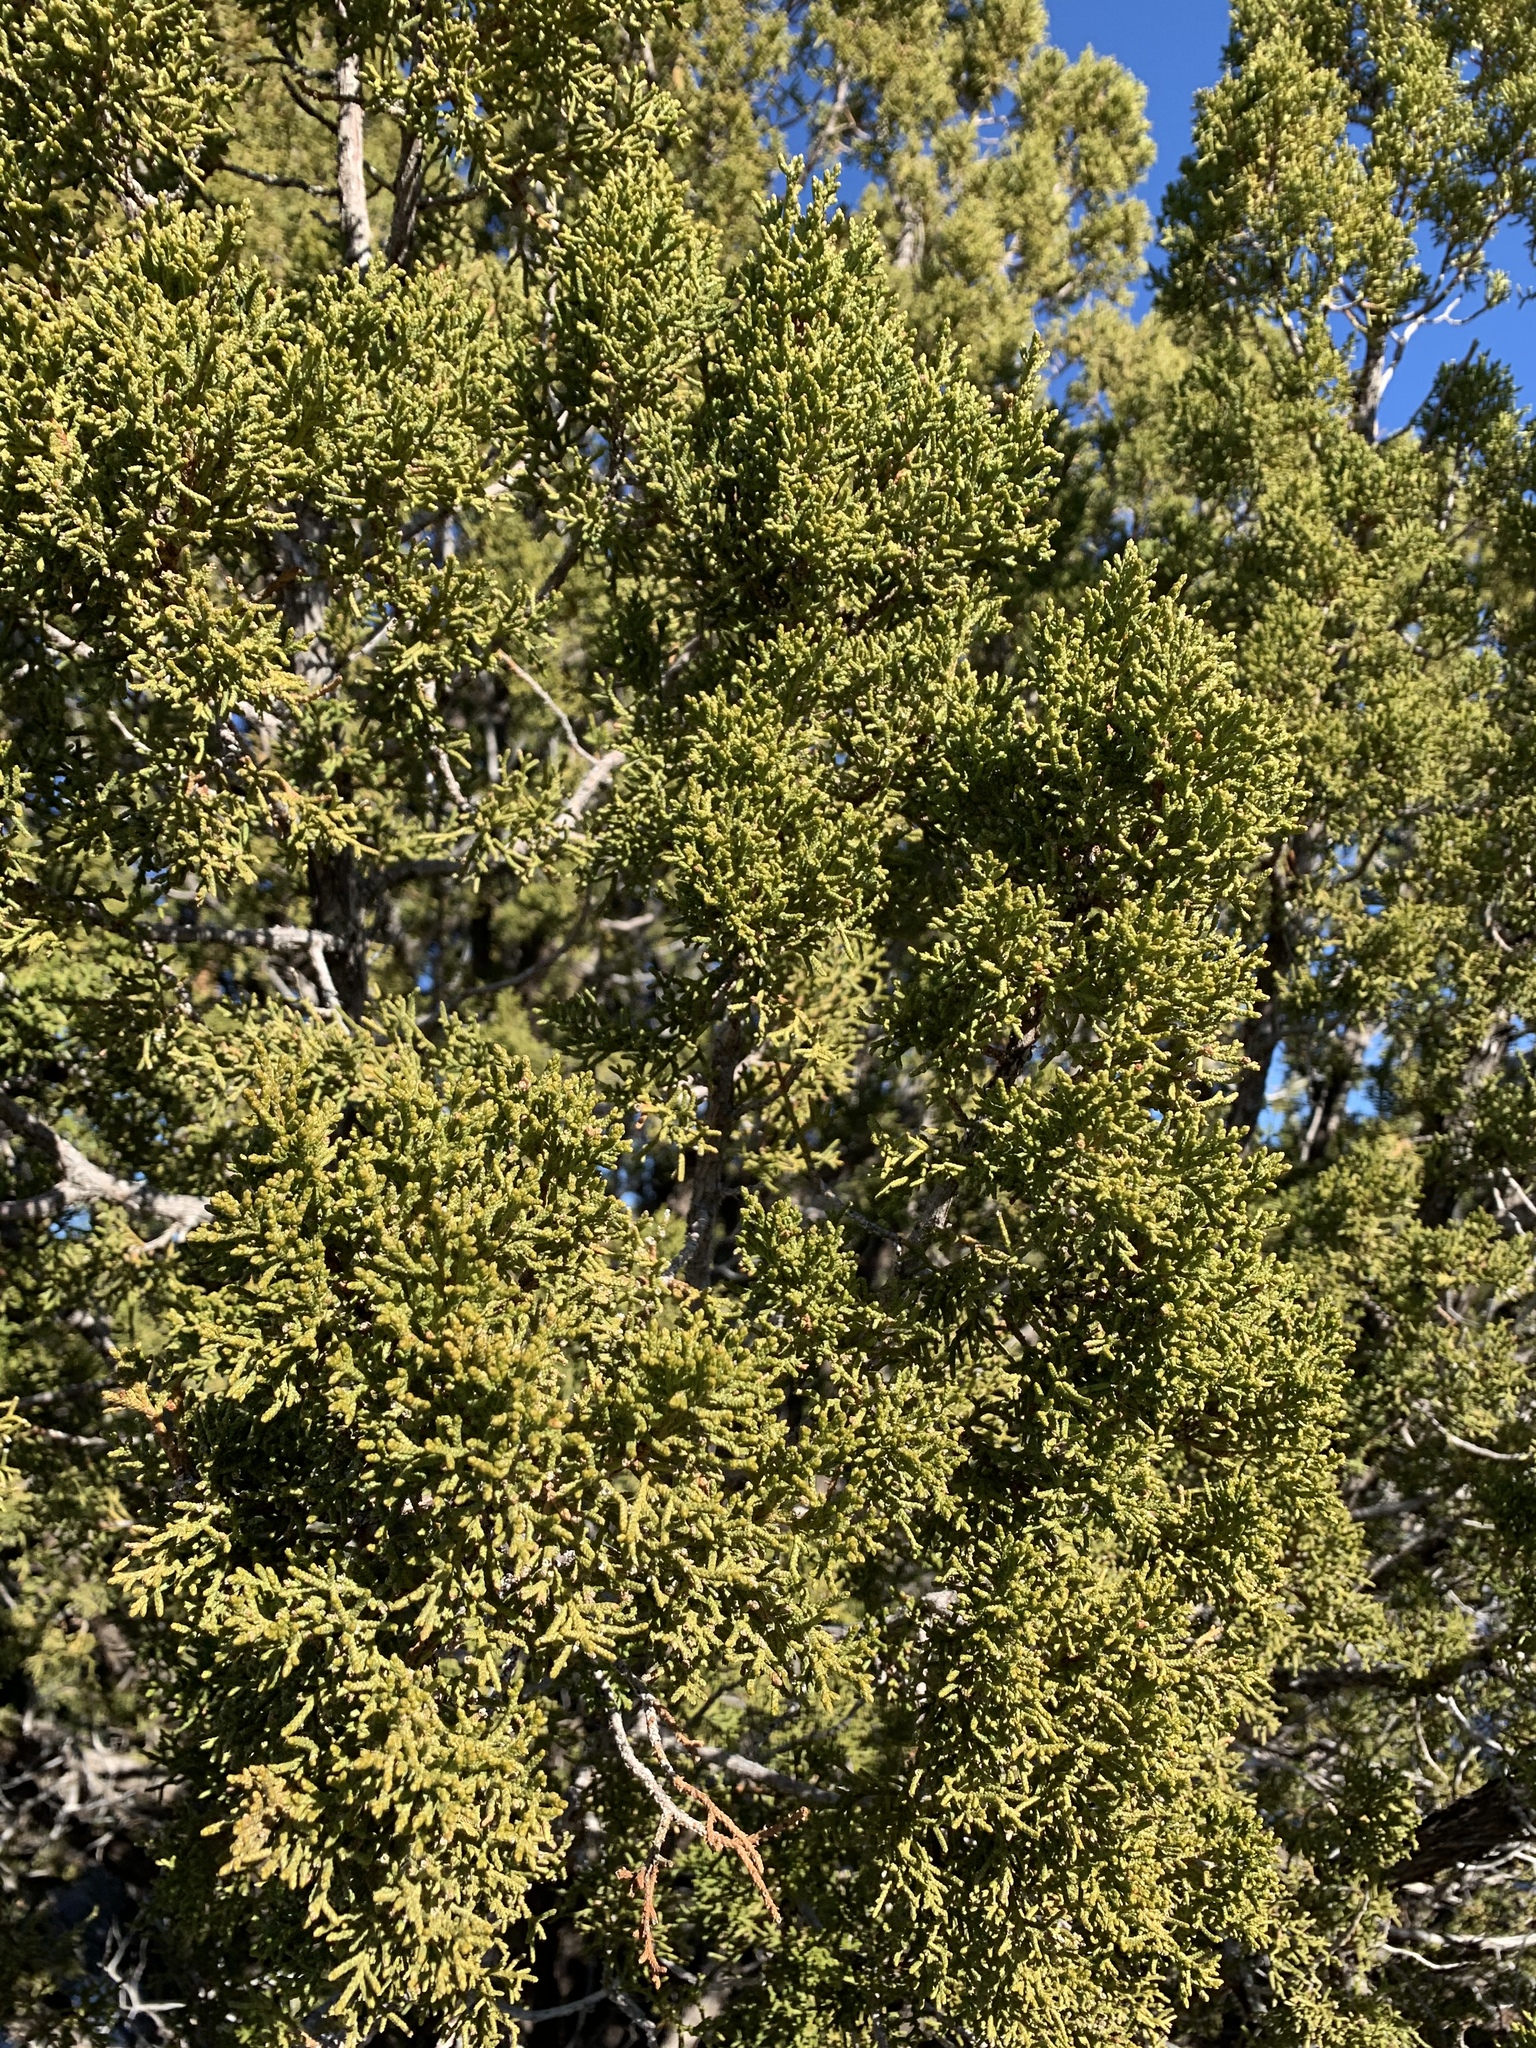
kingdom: Plantae
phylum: Tracheophyta
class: Pinopsida
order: Pinales
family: Cupressaceae
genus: Juniperus
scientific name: Juniperus monosperma
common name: One-seed juniper
